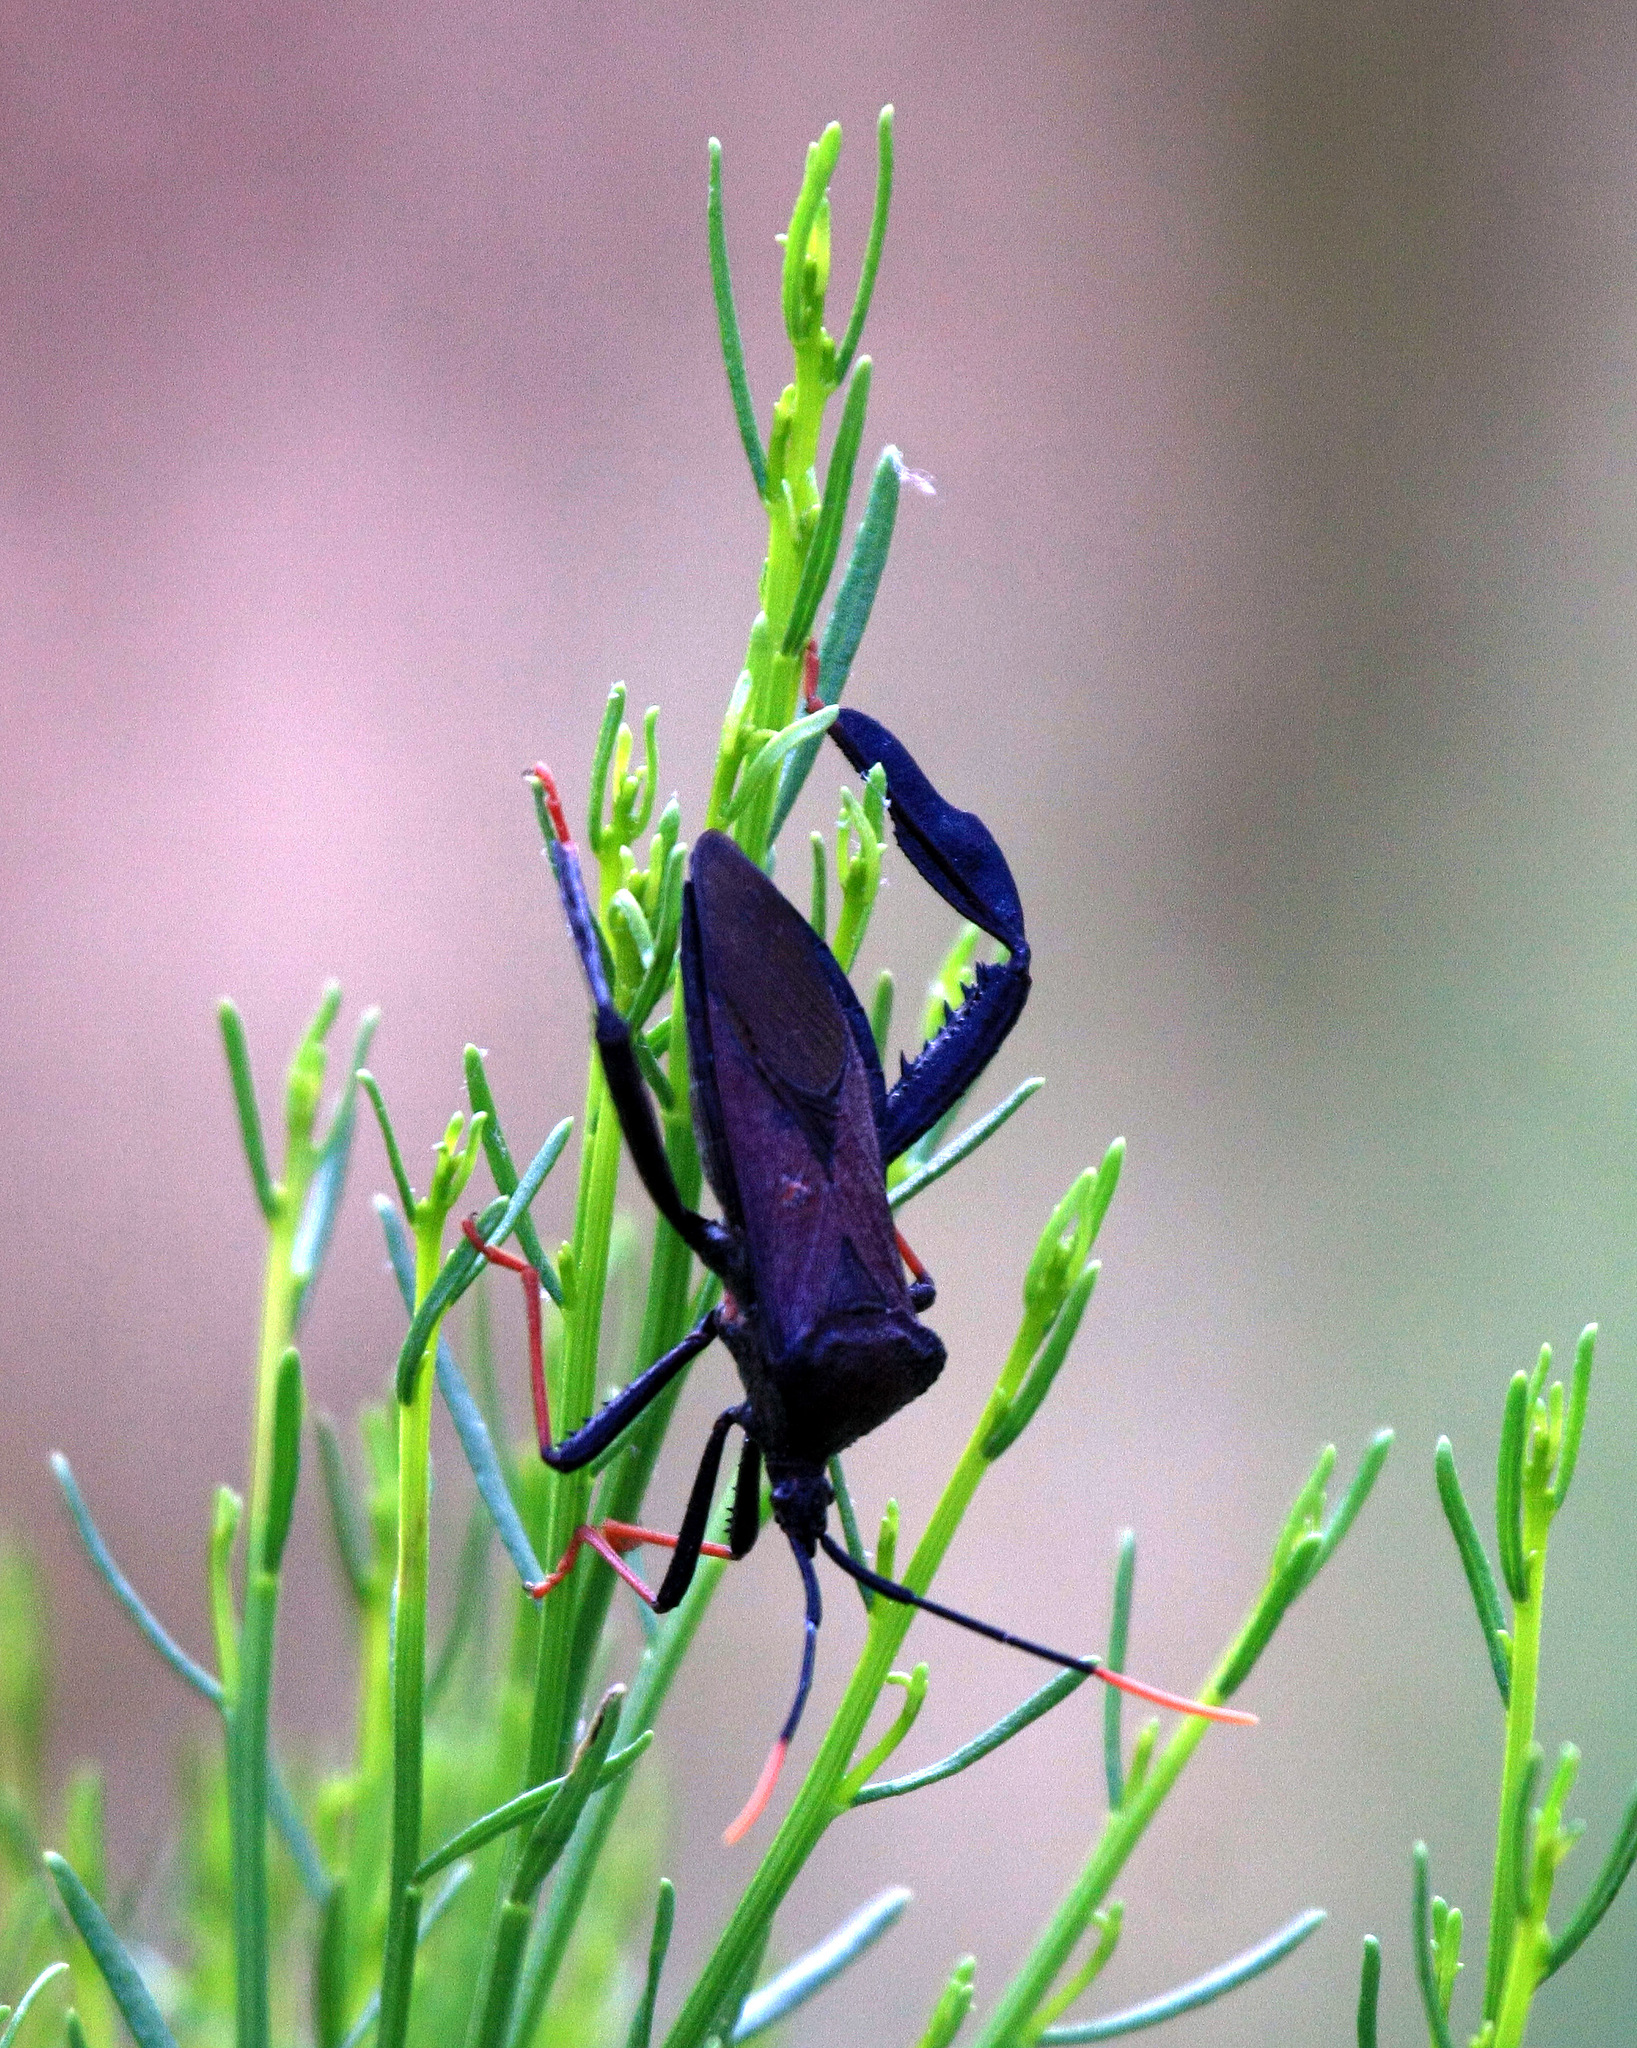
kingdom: Animalia
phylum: Arthropoda
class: Insecta
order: Hemiptera
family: Coreidae
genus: Acanthocephala
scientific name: Acanthocephala thomasi
